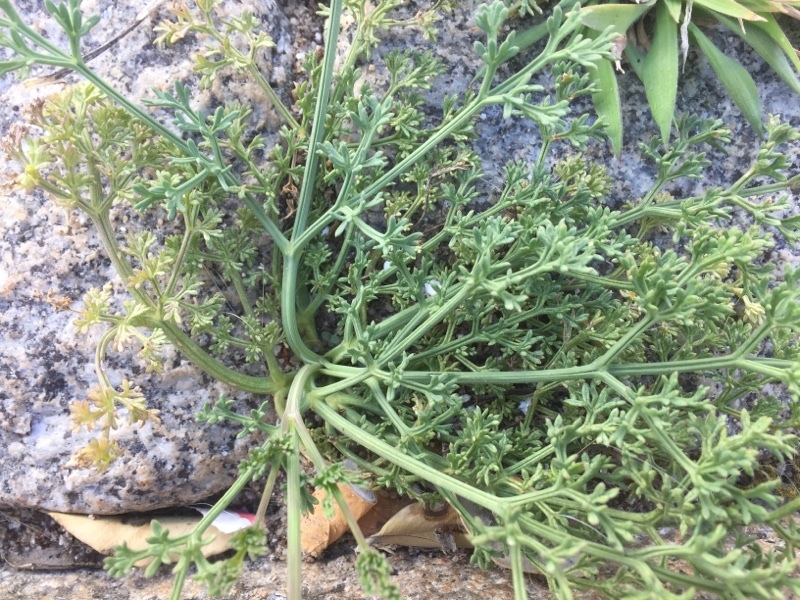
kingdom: Plantae
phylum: Tracheophyta
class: Magnoliopsida
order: Apiales
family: Apiaceae
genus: Crithmum
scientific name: Crithmum maritimum
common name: Rock samphire
